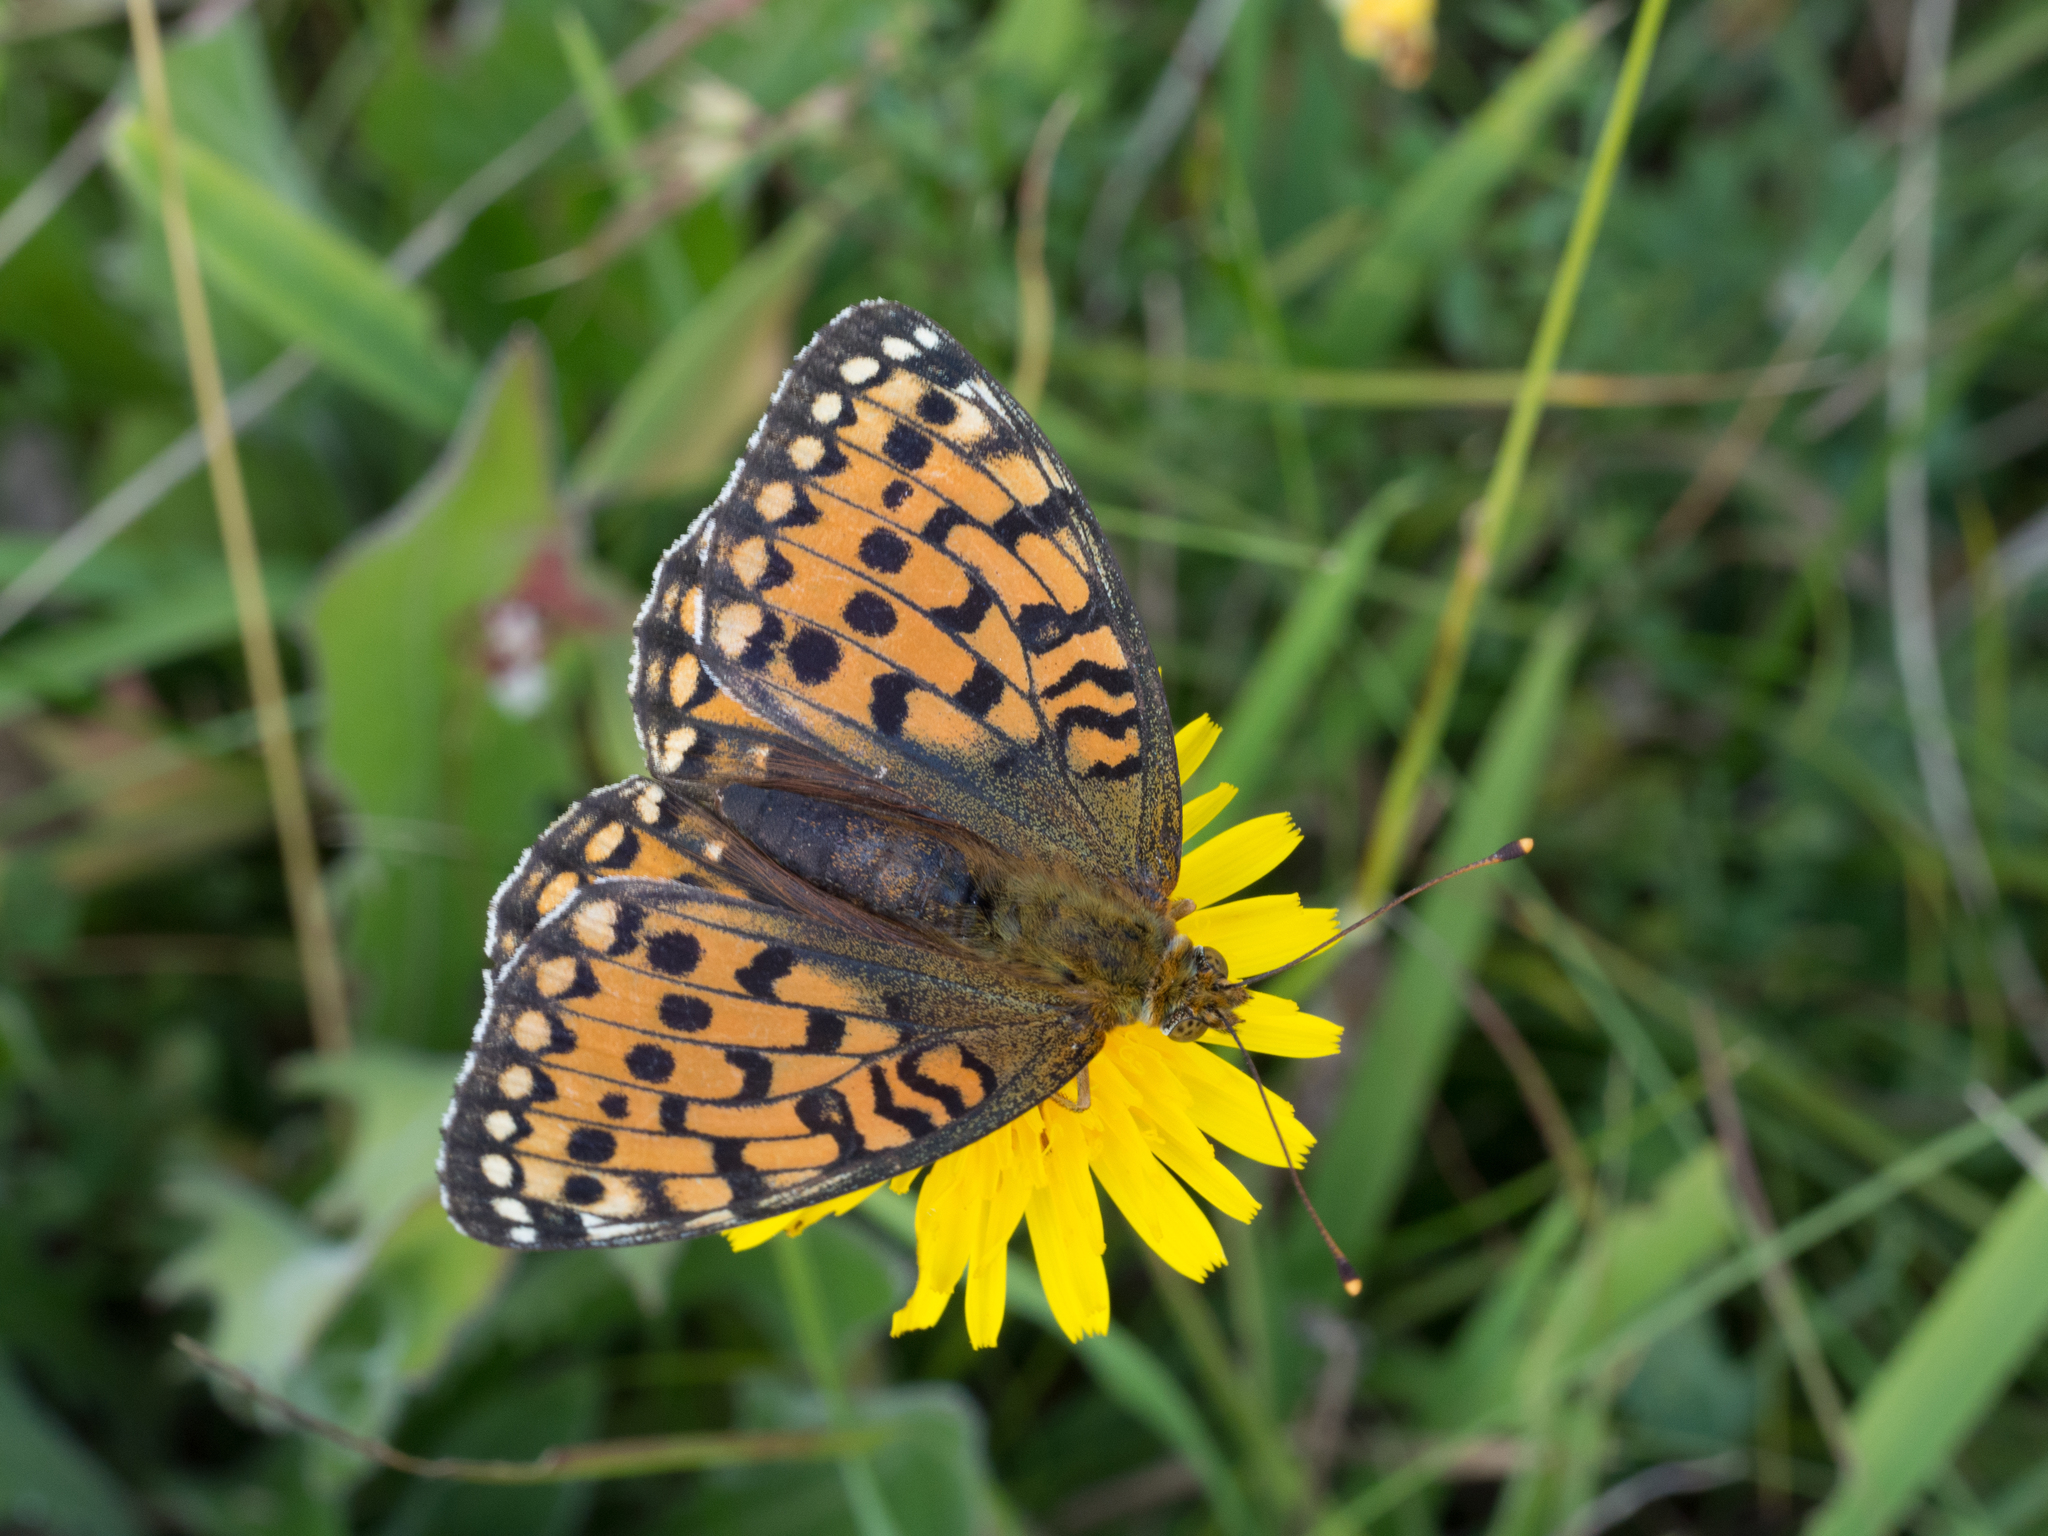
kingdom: Animalia
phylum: Arthropoda
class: Insecta
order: Lepidoptera
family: Nymphalidae
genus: Speyeria
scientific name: Speyeria aglaja
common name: Dark green fritillary
